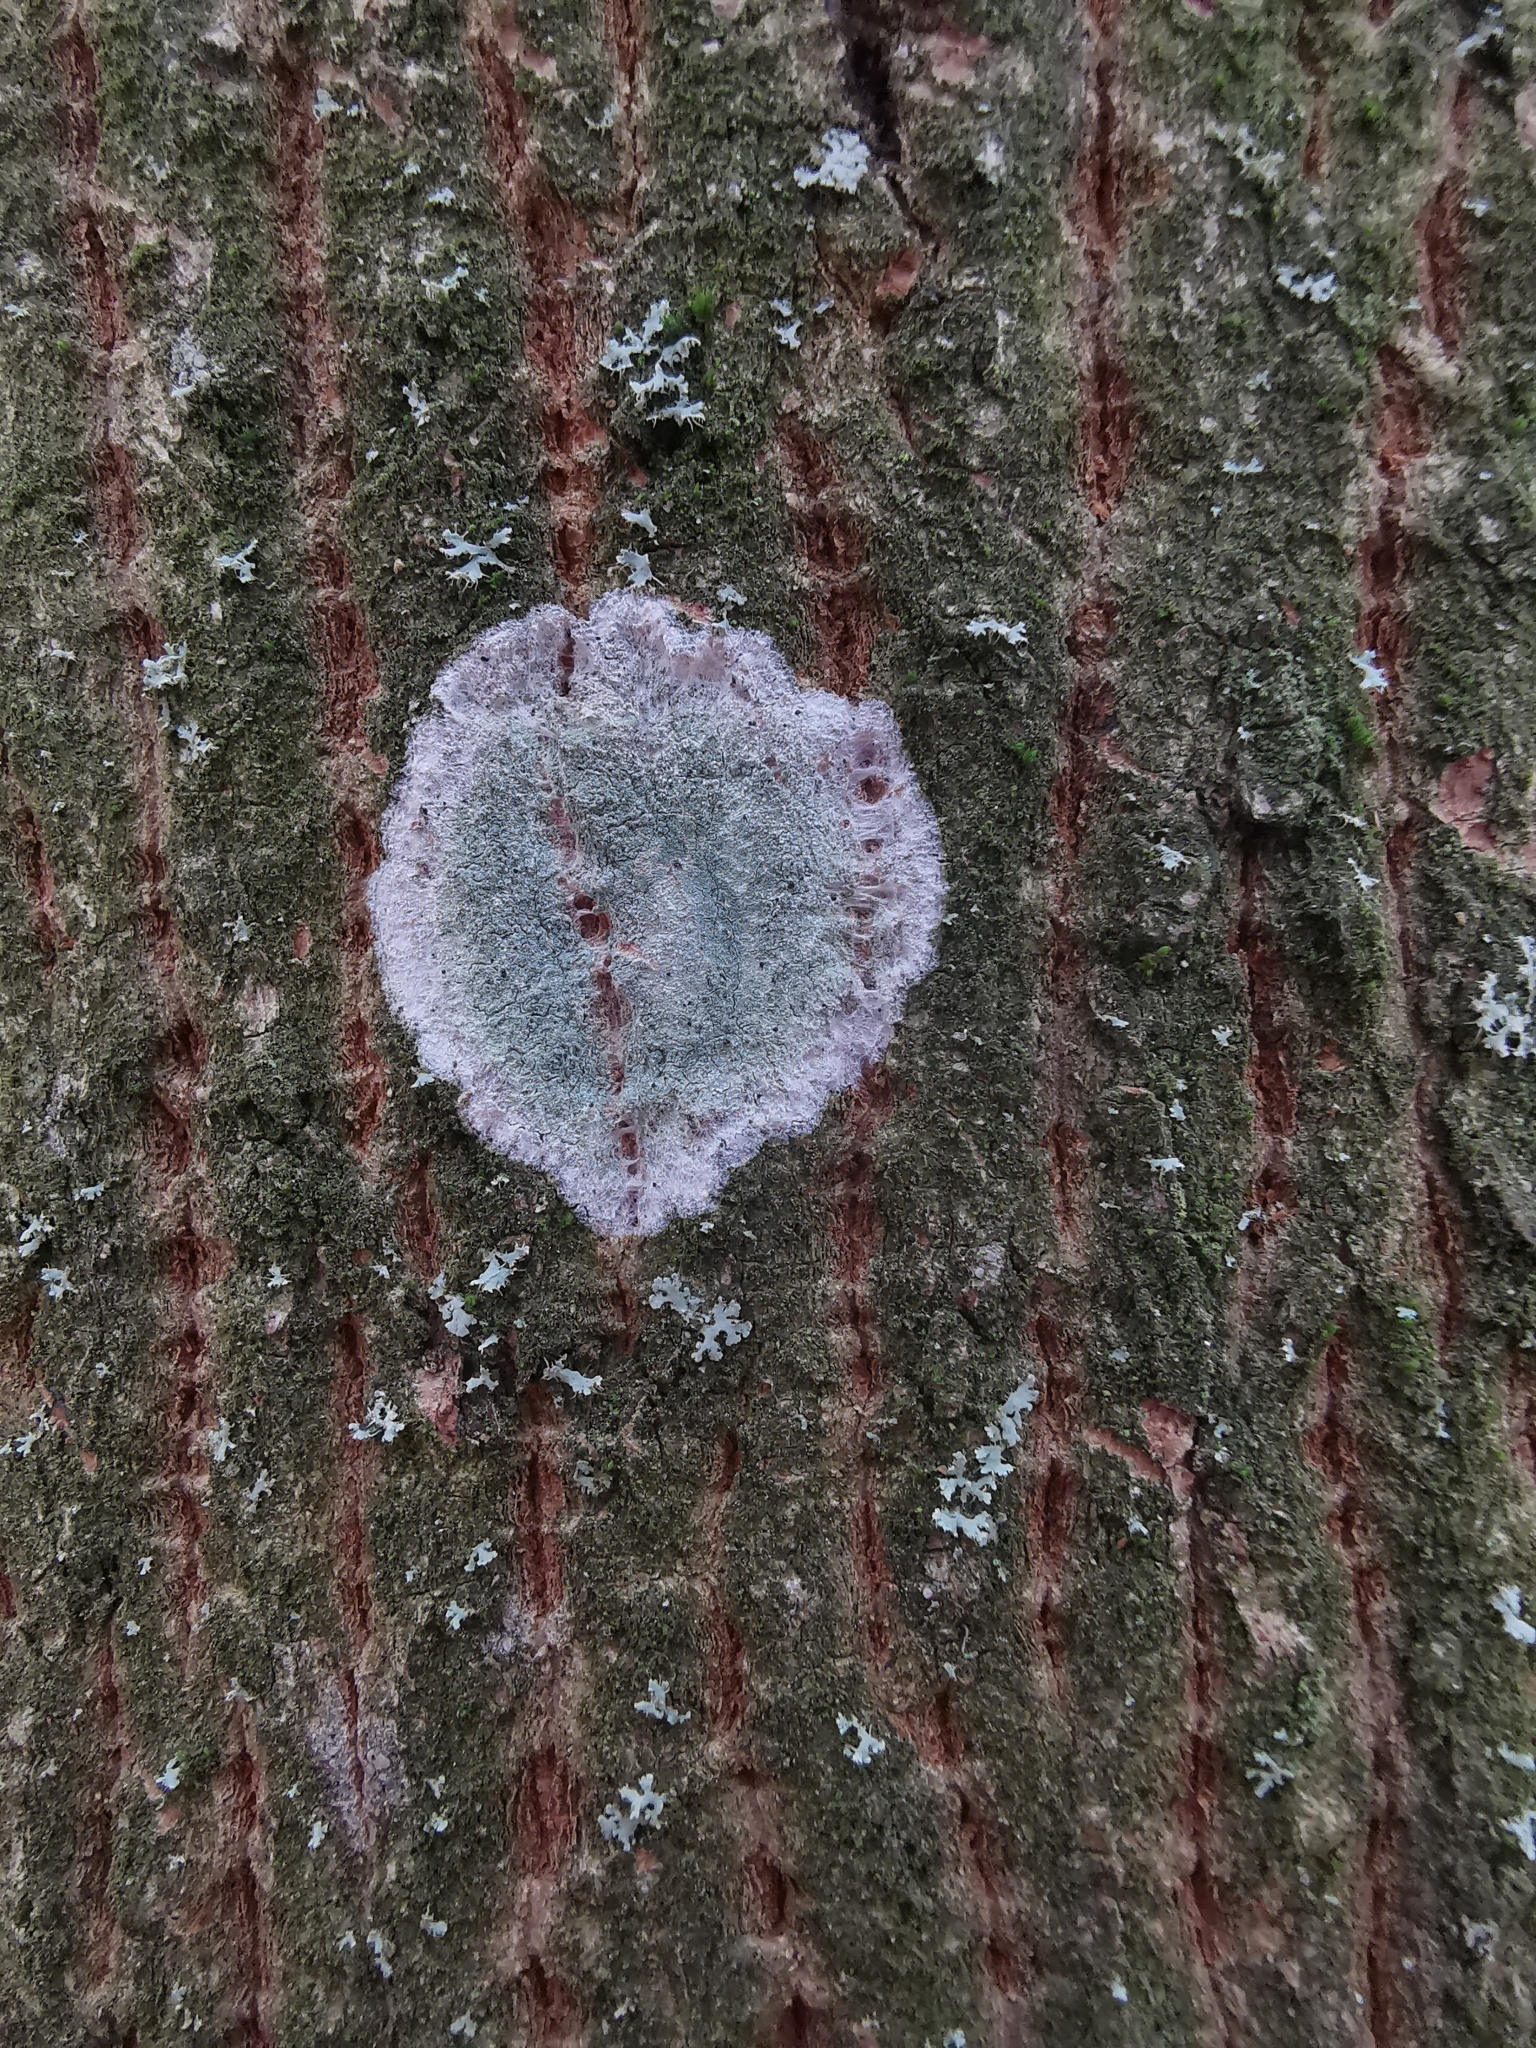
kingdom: Fungi
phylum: Ascomycota
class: Lecanoromycetes
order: Ostropales
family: Phlyctidaceae
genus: Phlyctis
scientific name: Phlyctis argena
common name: Whitewash lichen
